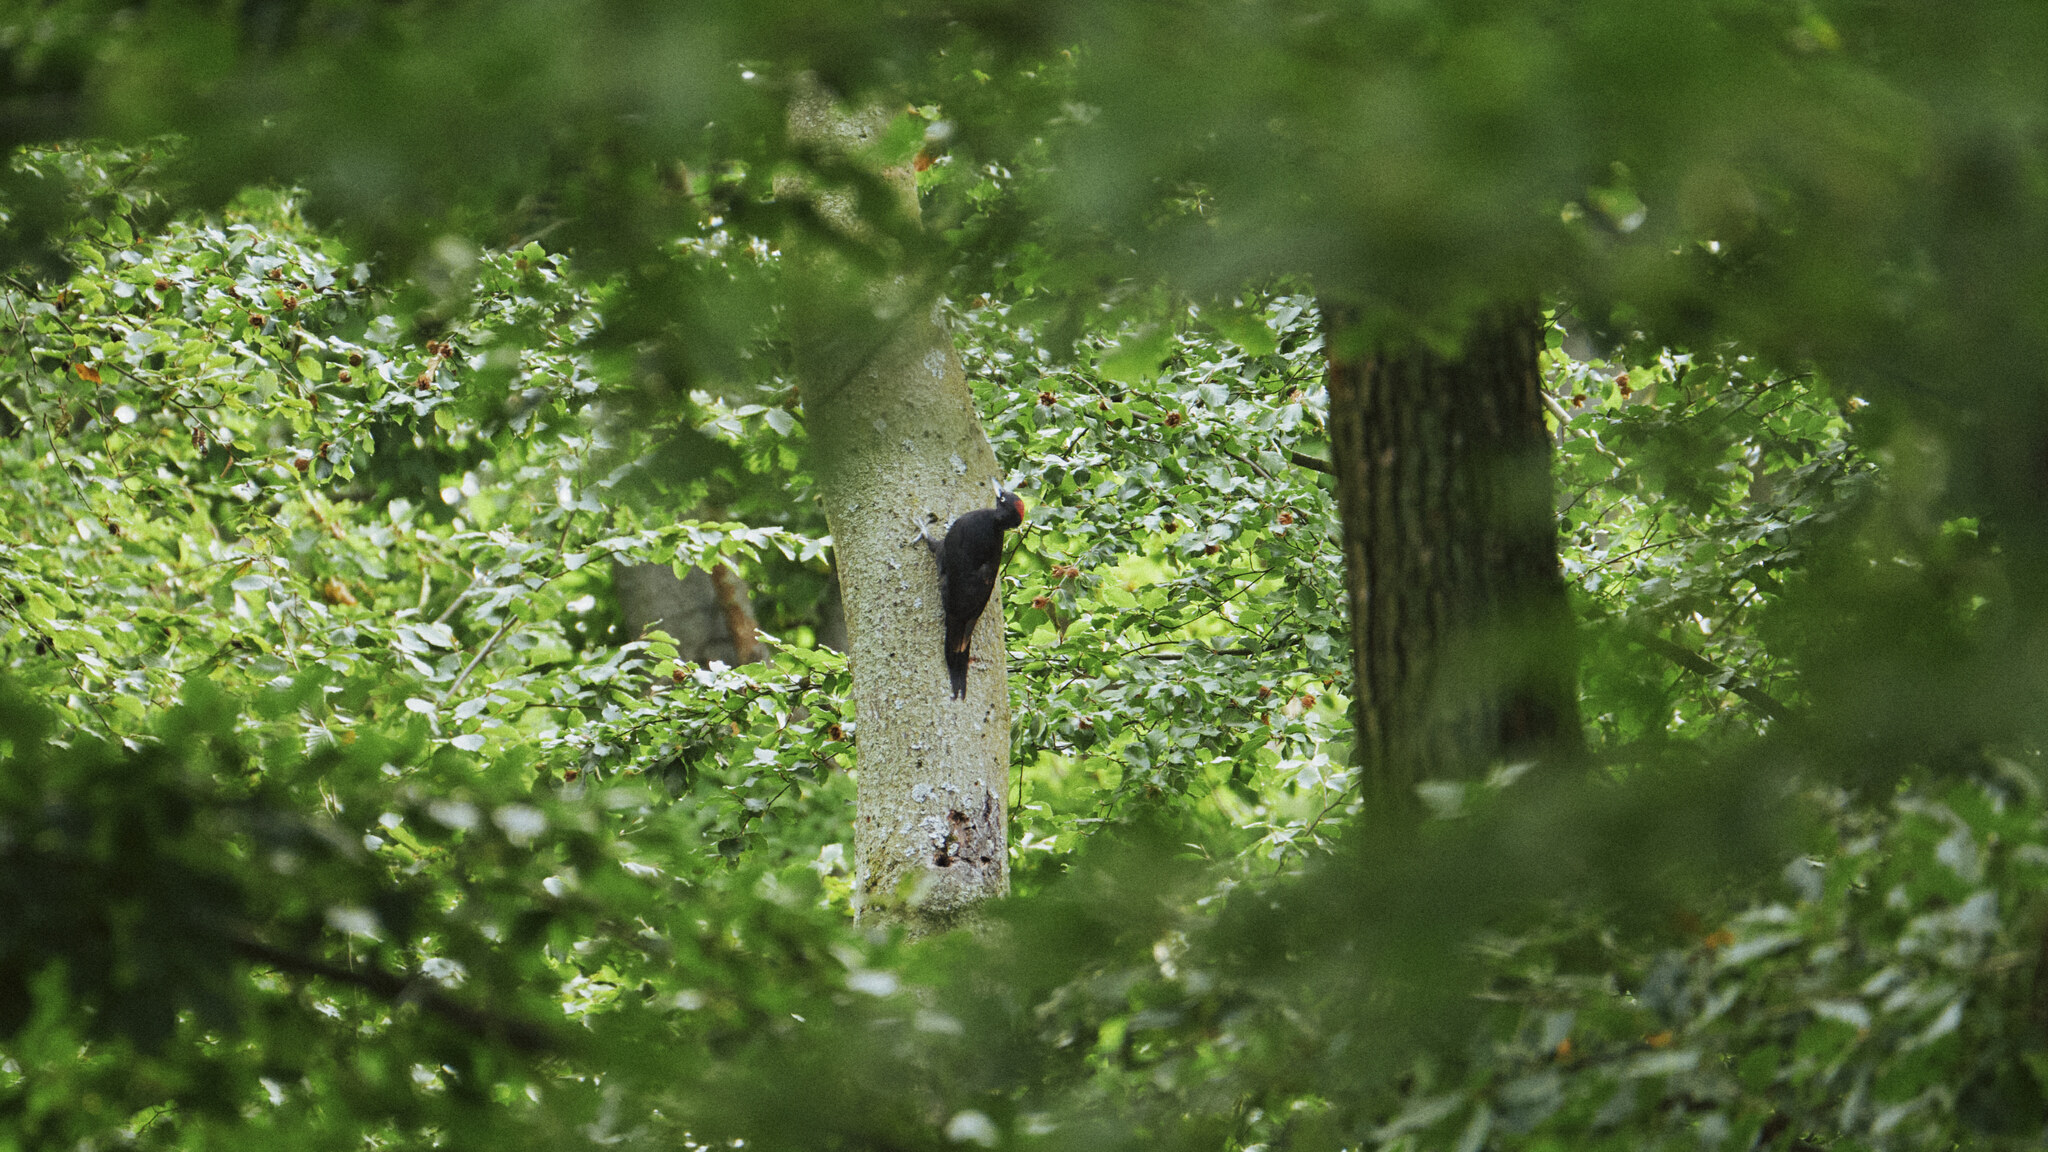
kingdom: Animalia
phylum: Chordata
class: Aves
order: Piciformes
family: Picidae
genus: Dryocopus
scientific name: Dryocopus martius
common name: Black woodpecker
